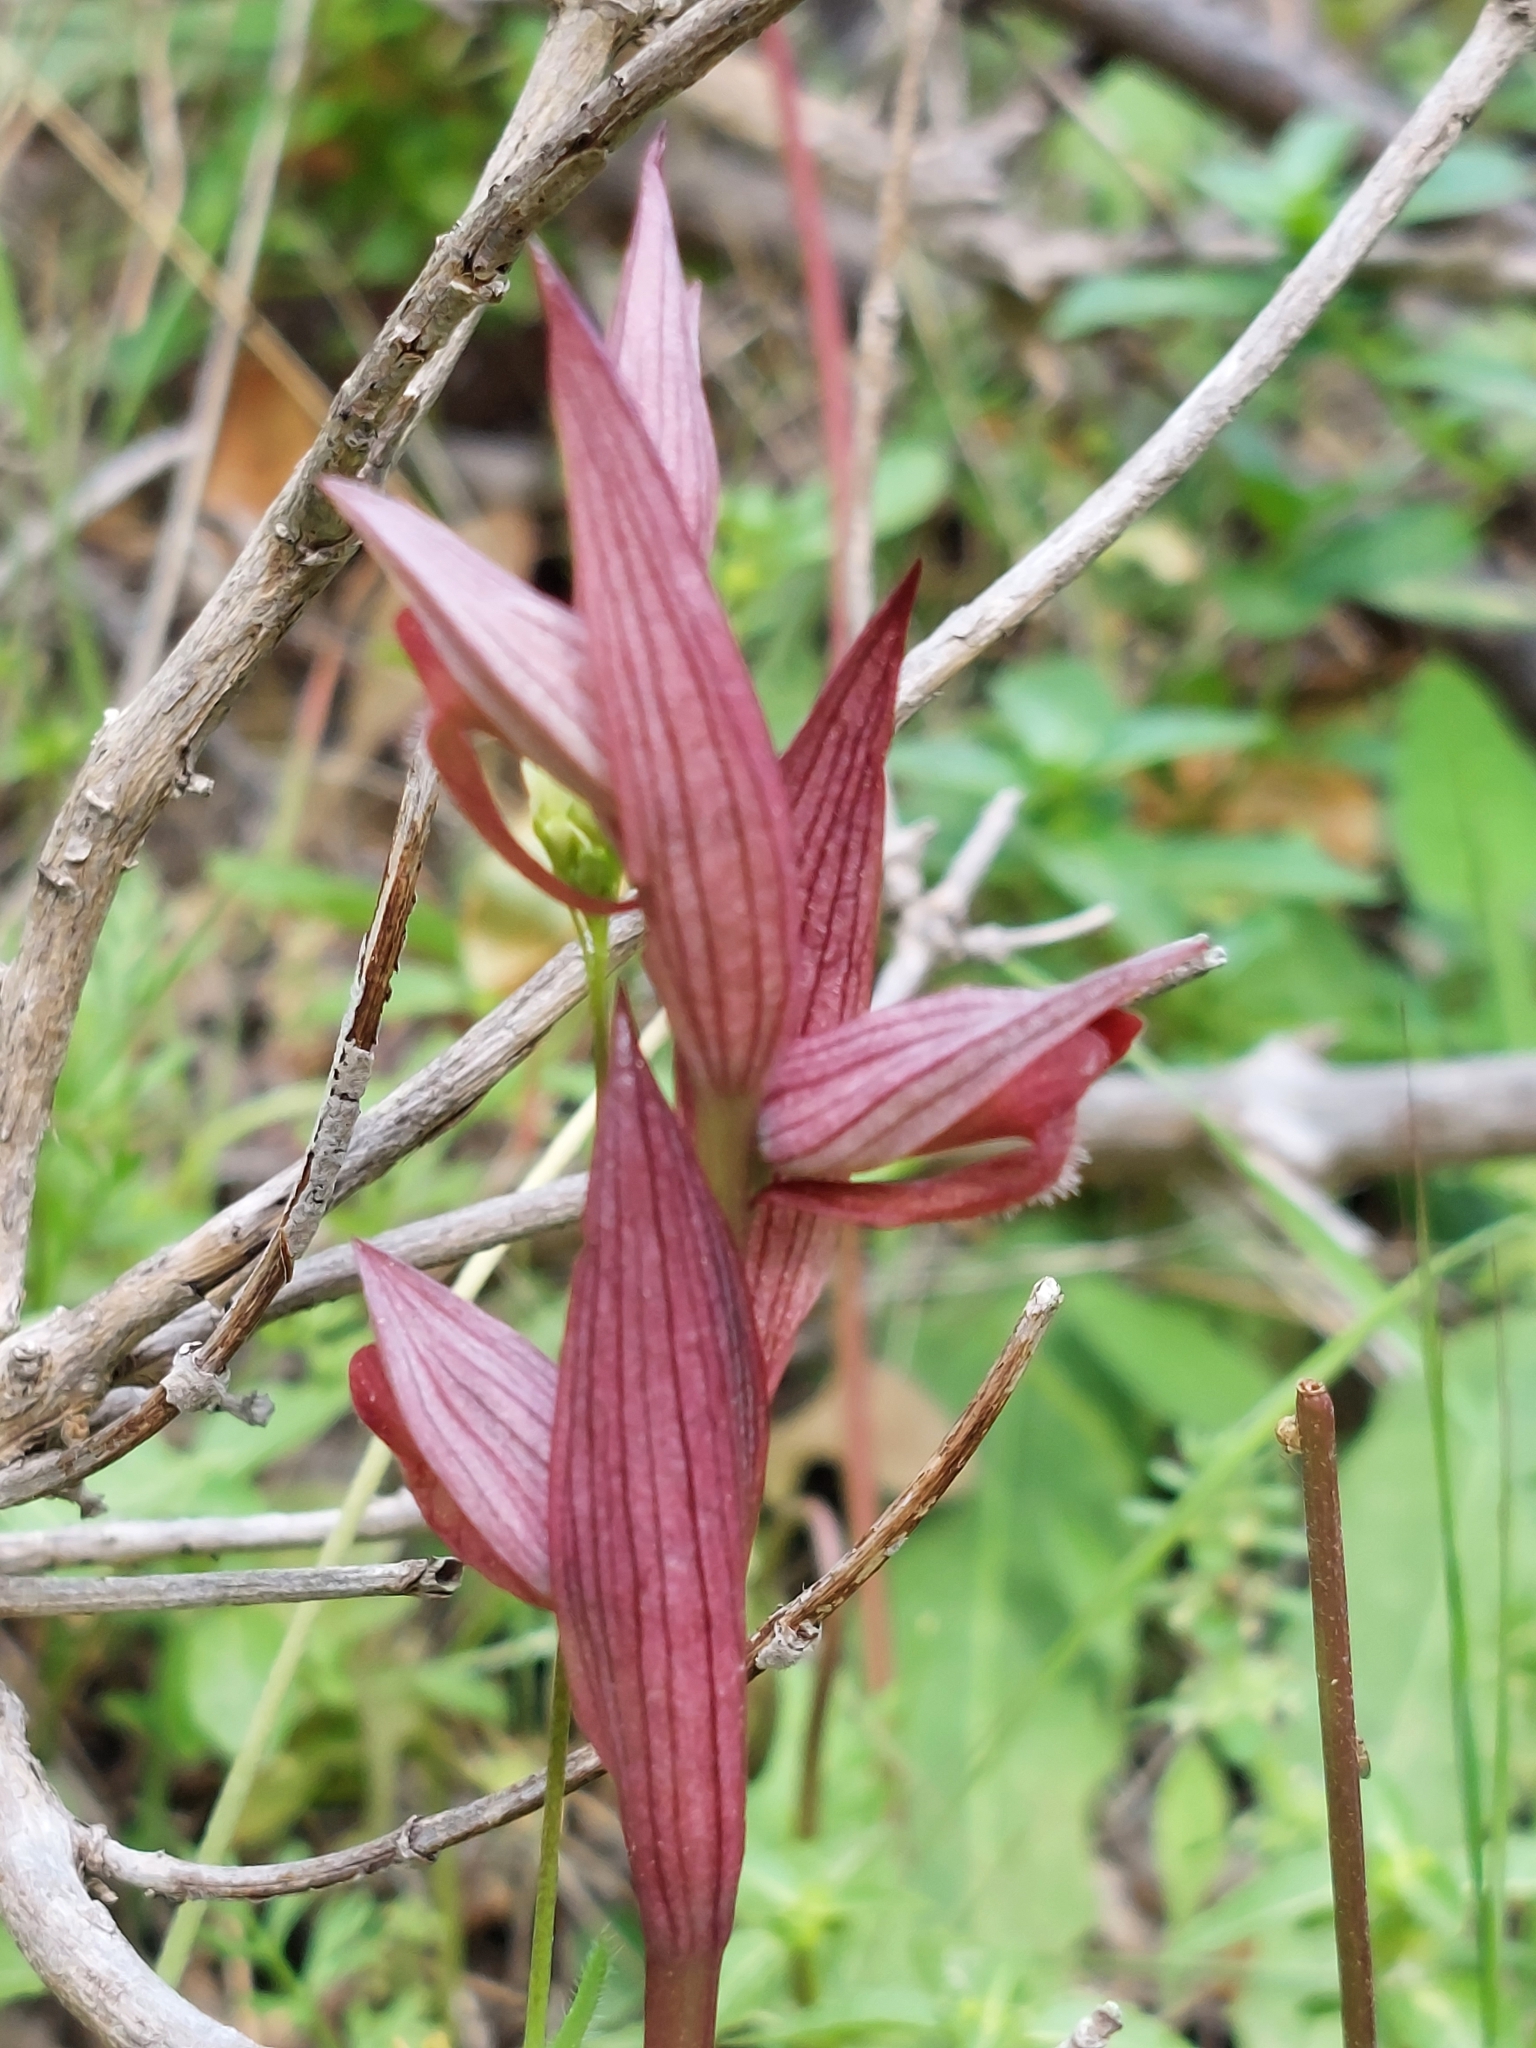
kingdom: Plantae
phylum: Tracheophyta
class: Liliopsida
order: Asparagales
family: Orchidaceae
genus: Serapias
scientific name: Serapias bergonii
